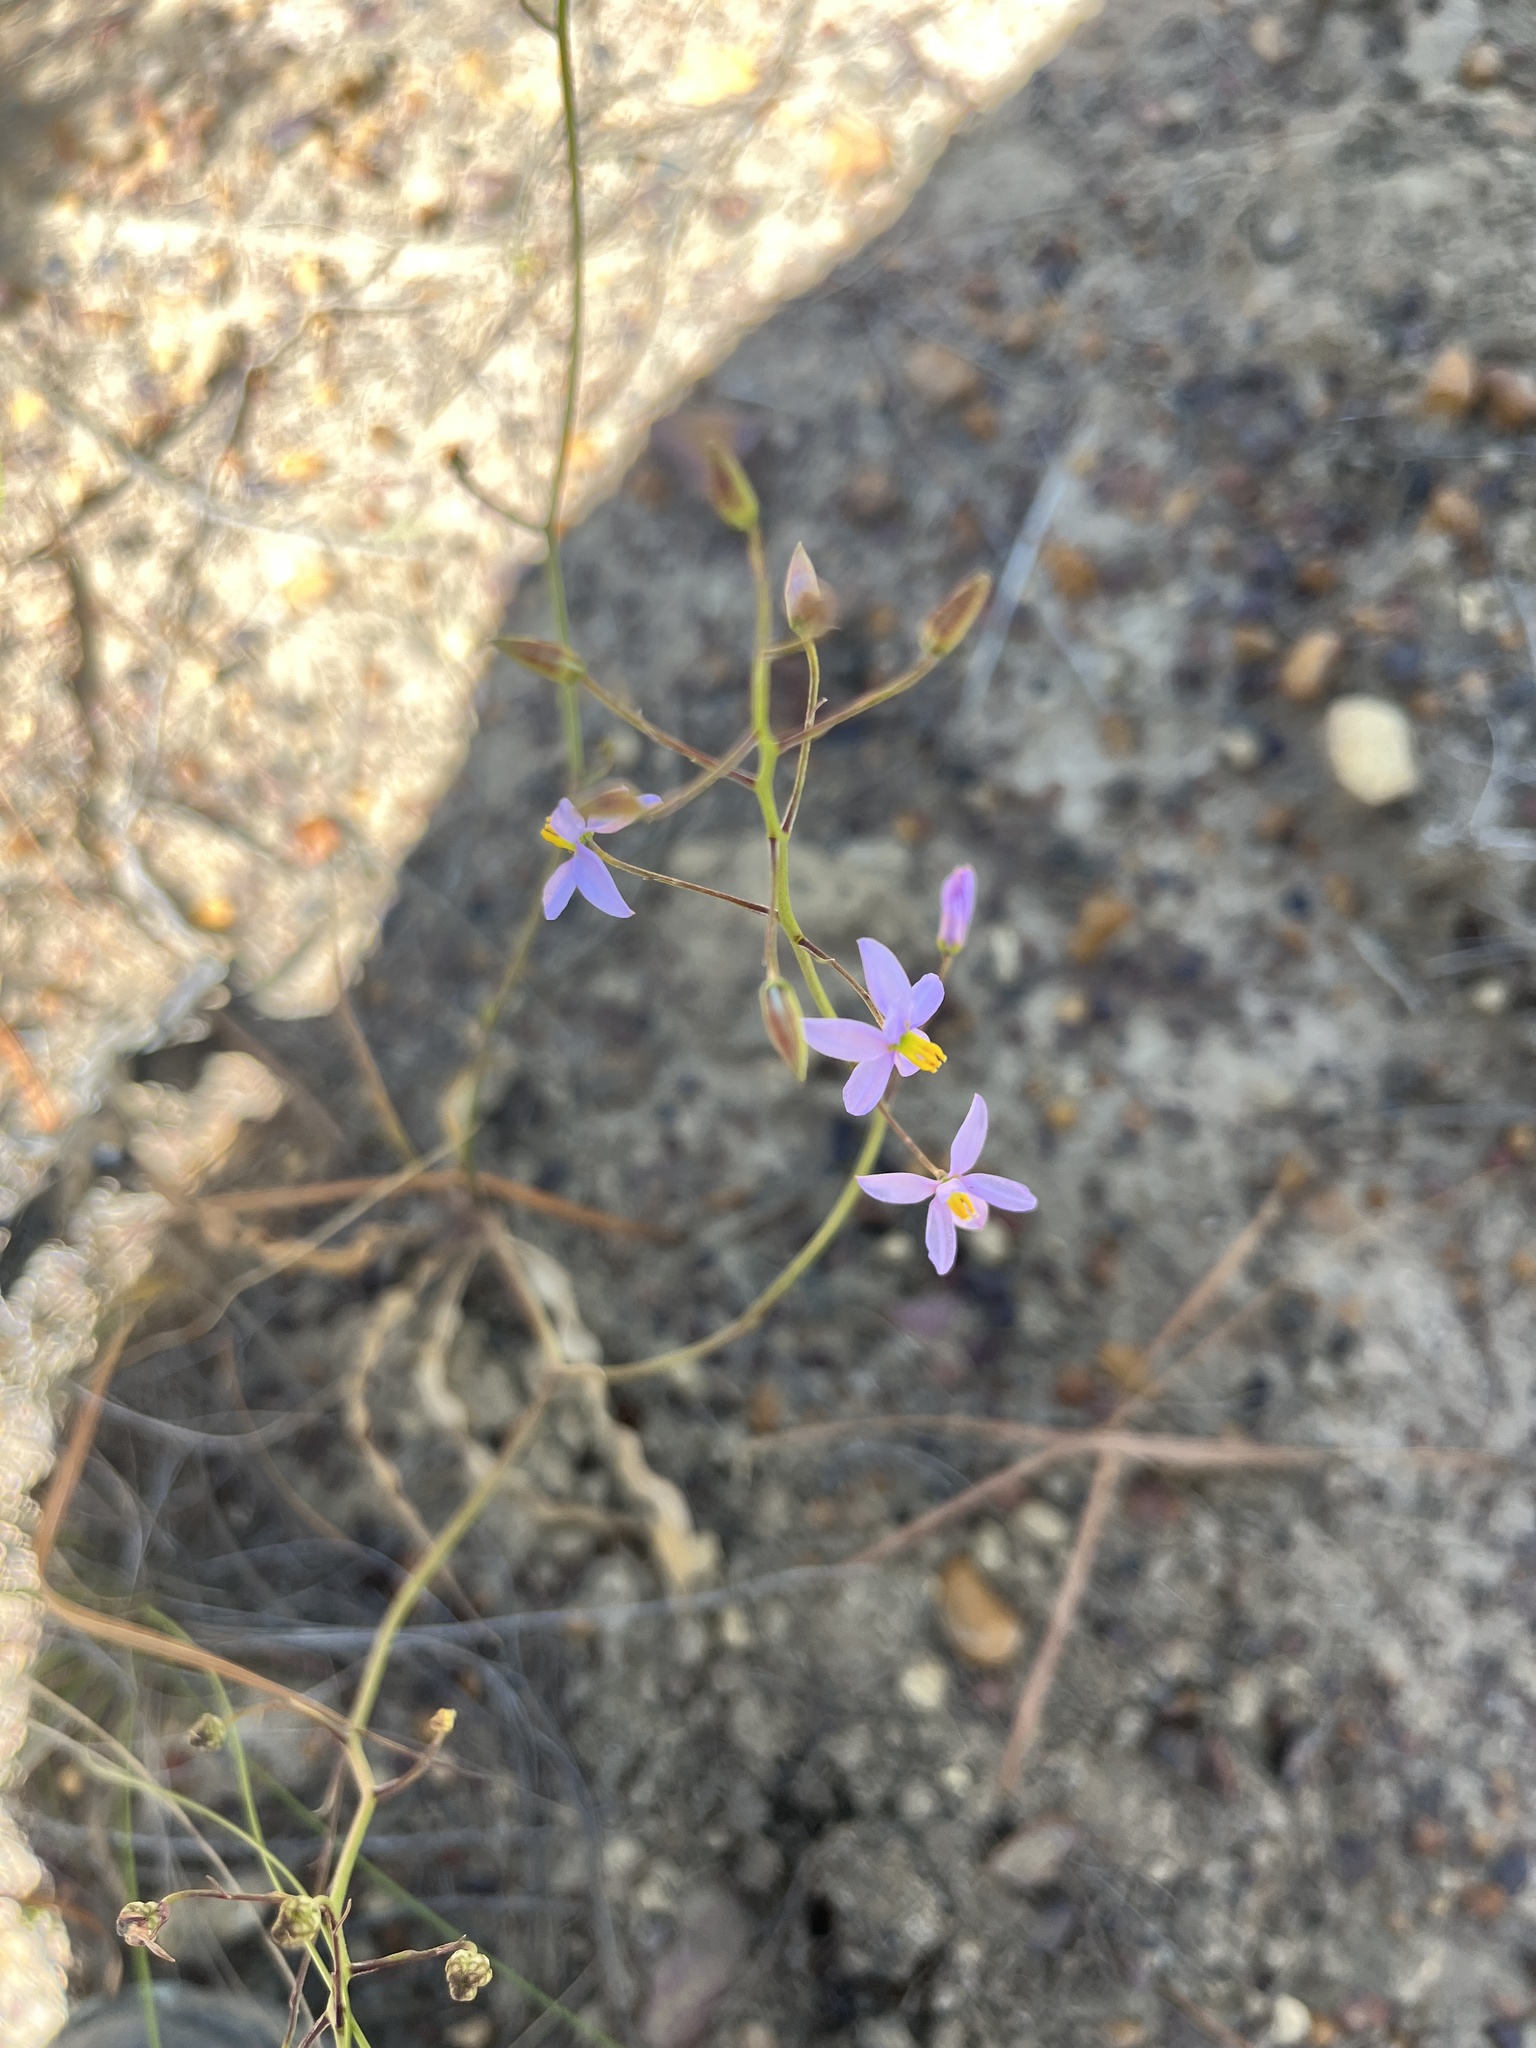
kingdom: Plantae
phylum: Tracheophyta
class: Liliopsida
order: Asparagales
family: Tecophilaeaceae
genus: Cyanella
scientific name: Cyanella hyacinthoides
